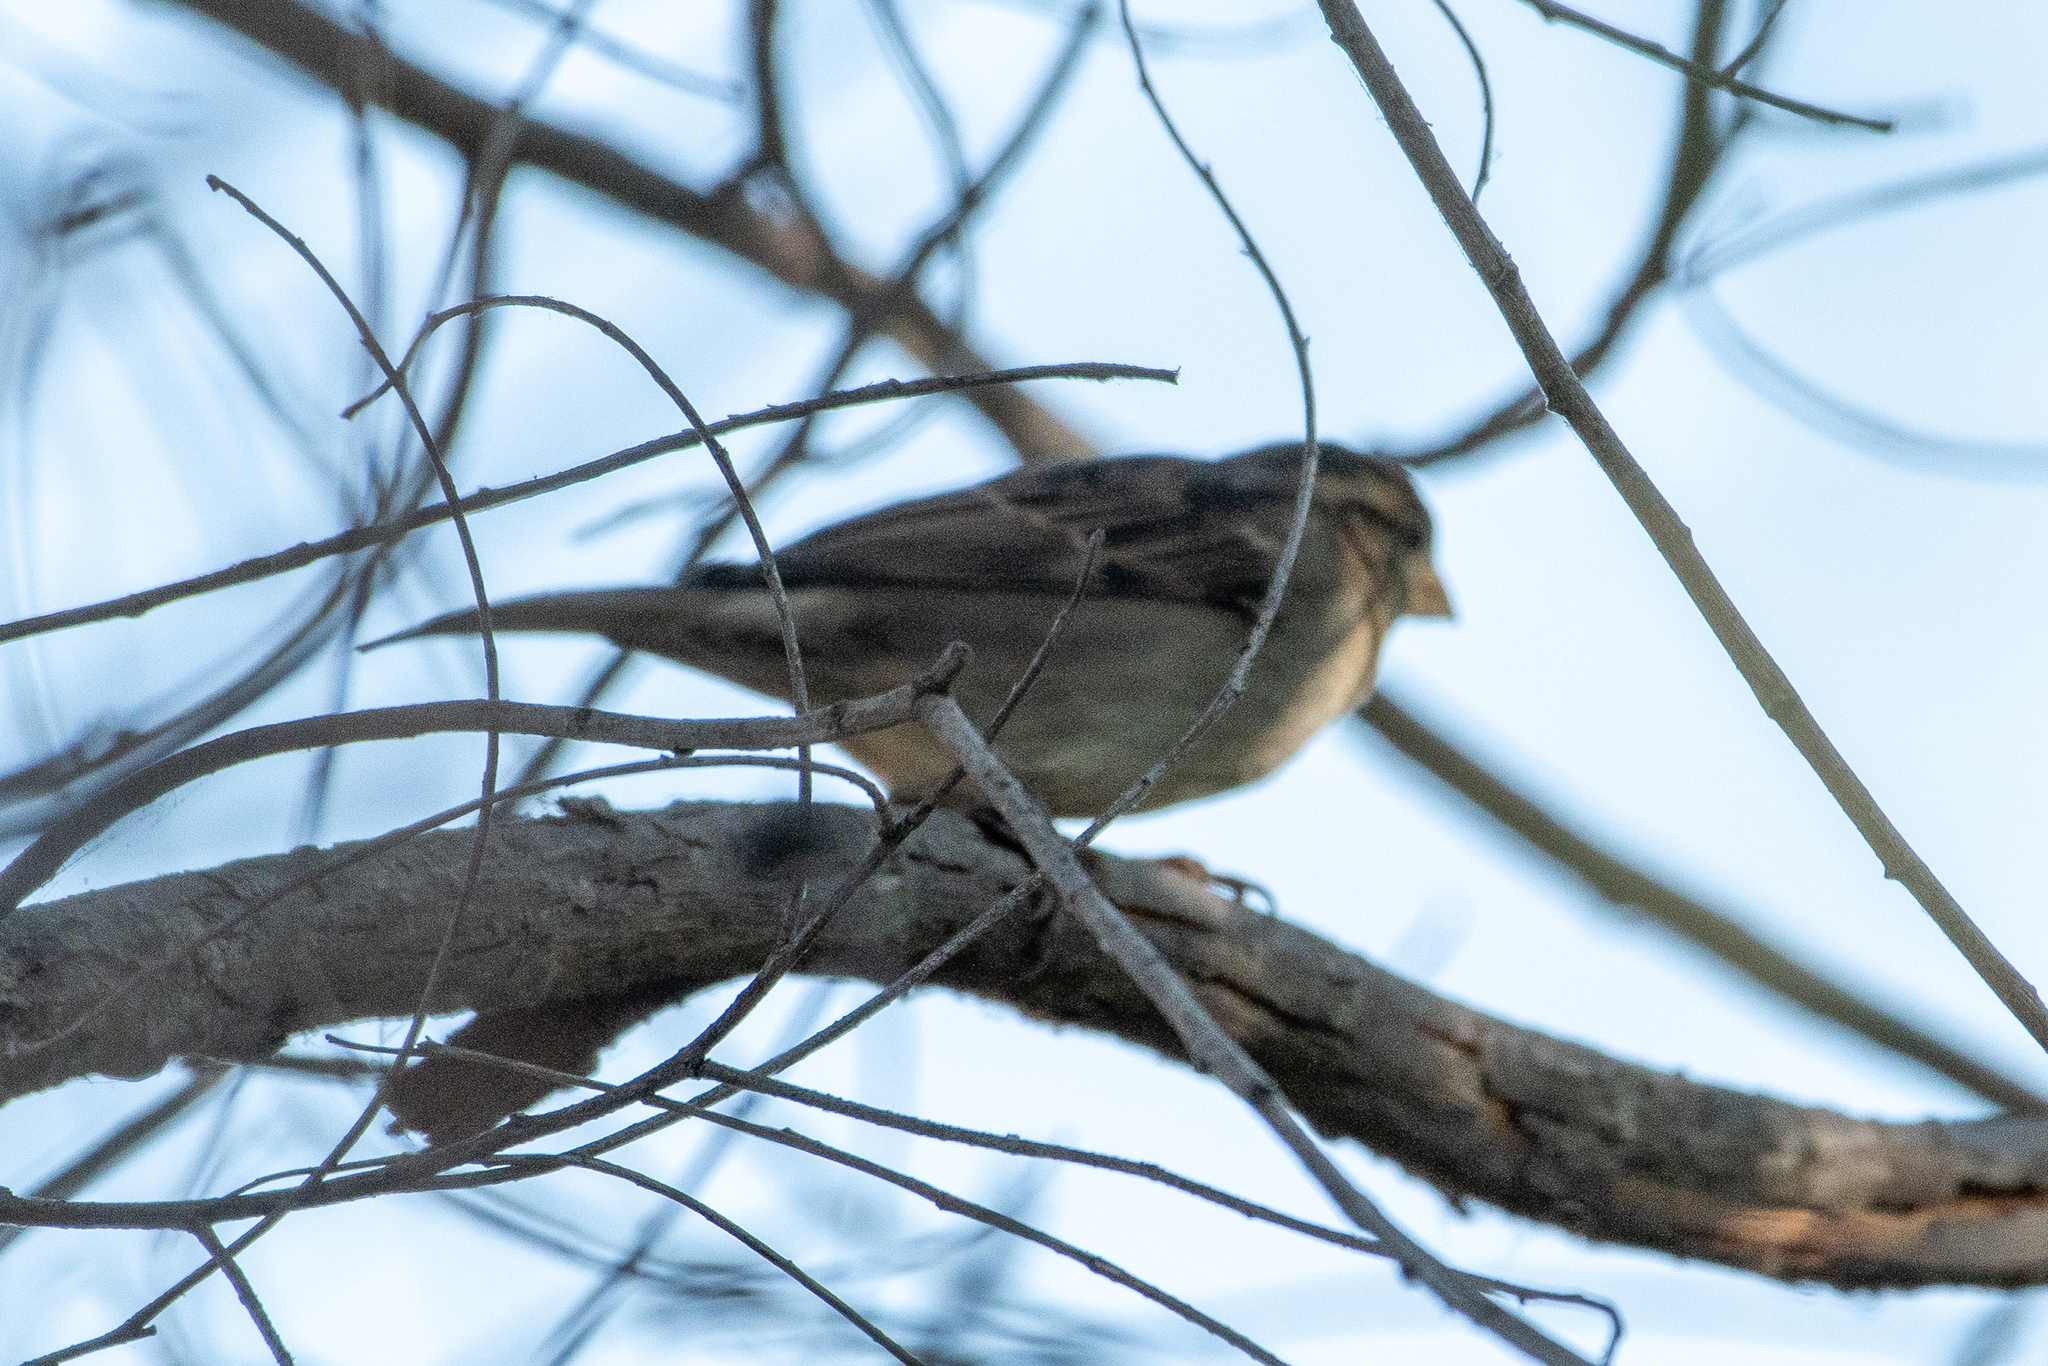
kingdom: Animalia
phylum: Chordata
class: Aves
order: Passeriformes
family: Passeridae
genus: Passer
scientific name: Passer domesticus
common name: House sparrow
